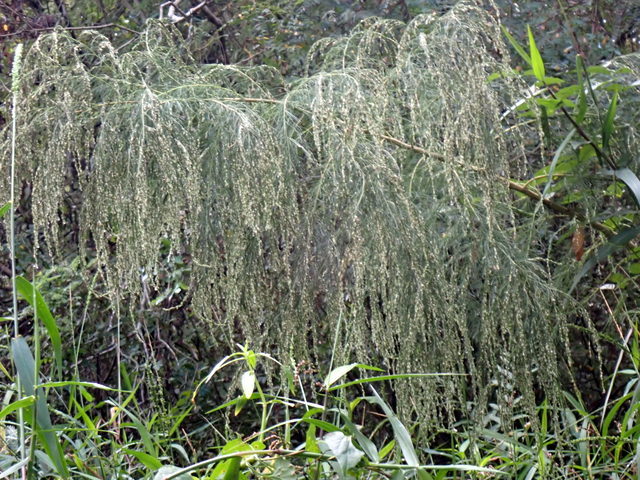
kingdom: Plantae
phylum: Tracheophyta
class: Magnoliopsida
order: Asterales
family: Asteraceae
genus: Eupatorium
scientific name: Eupatorium capillifolium
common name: Dog-fennel
